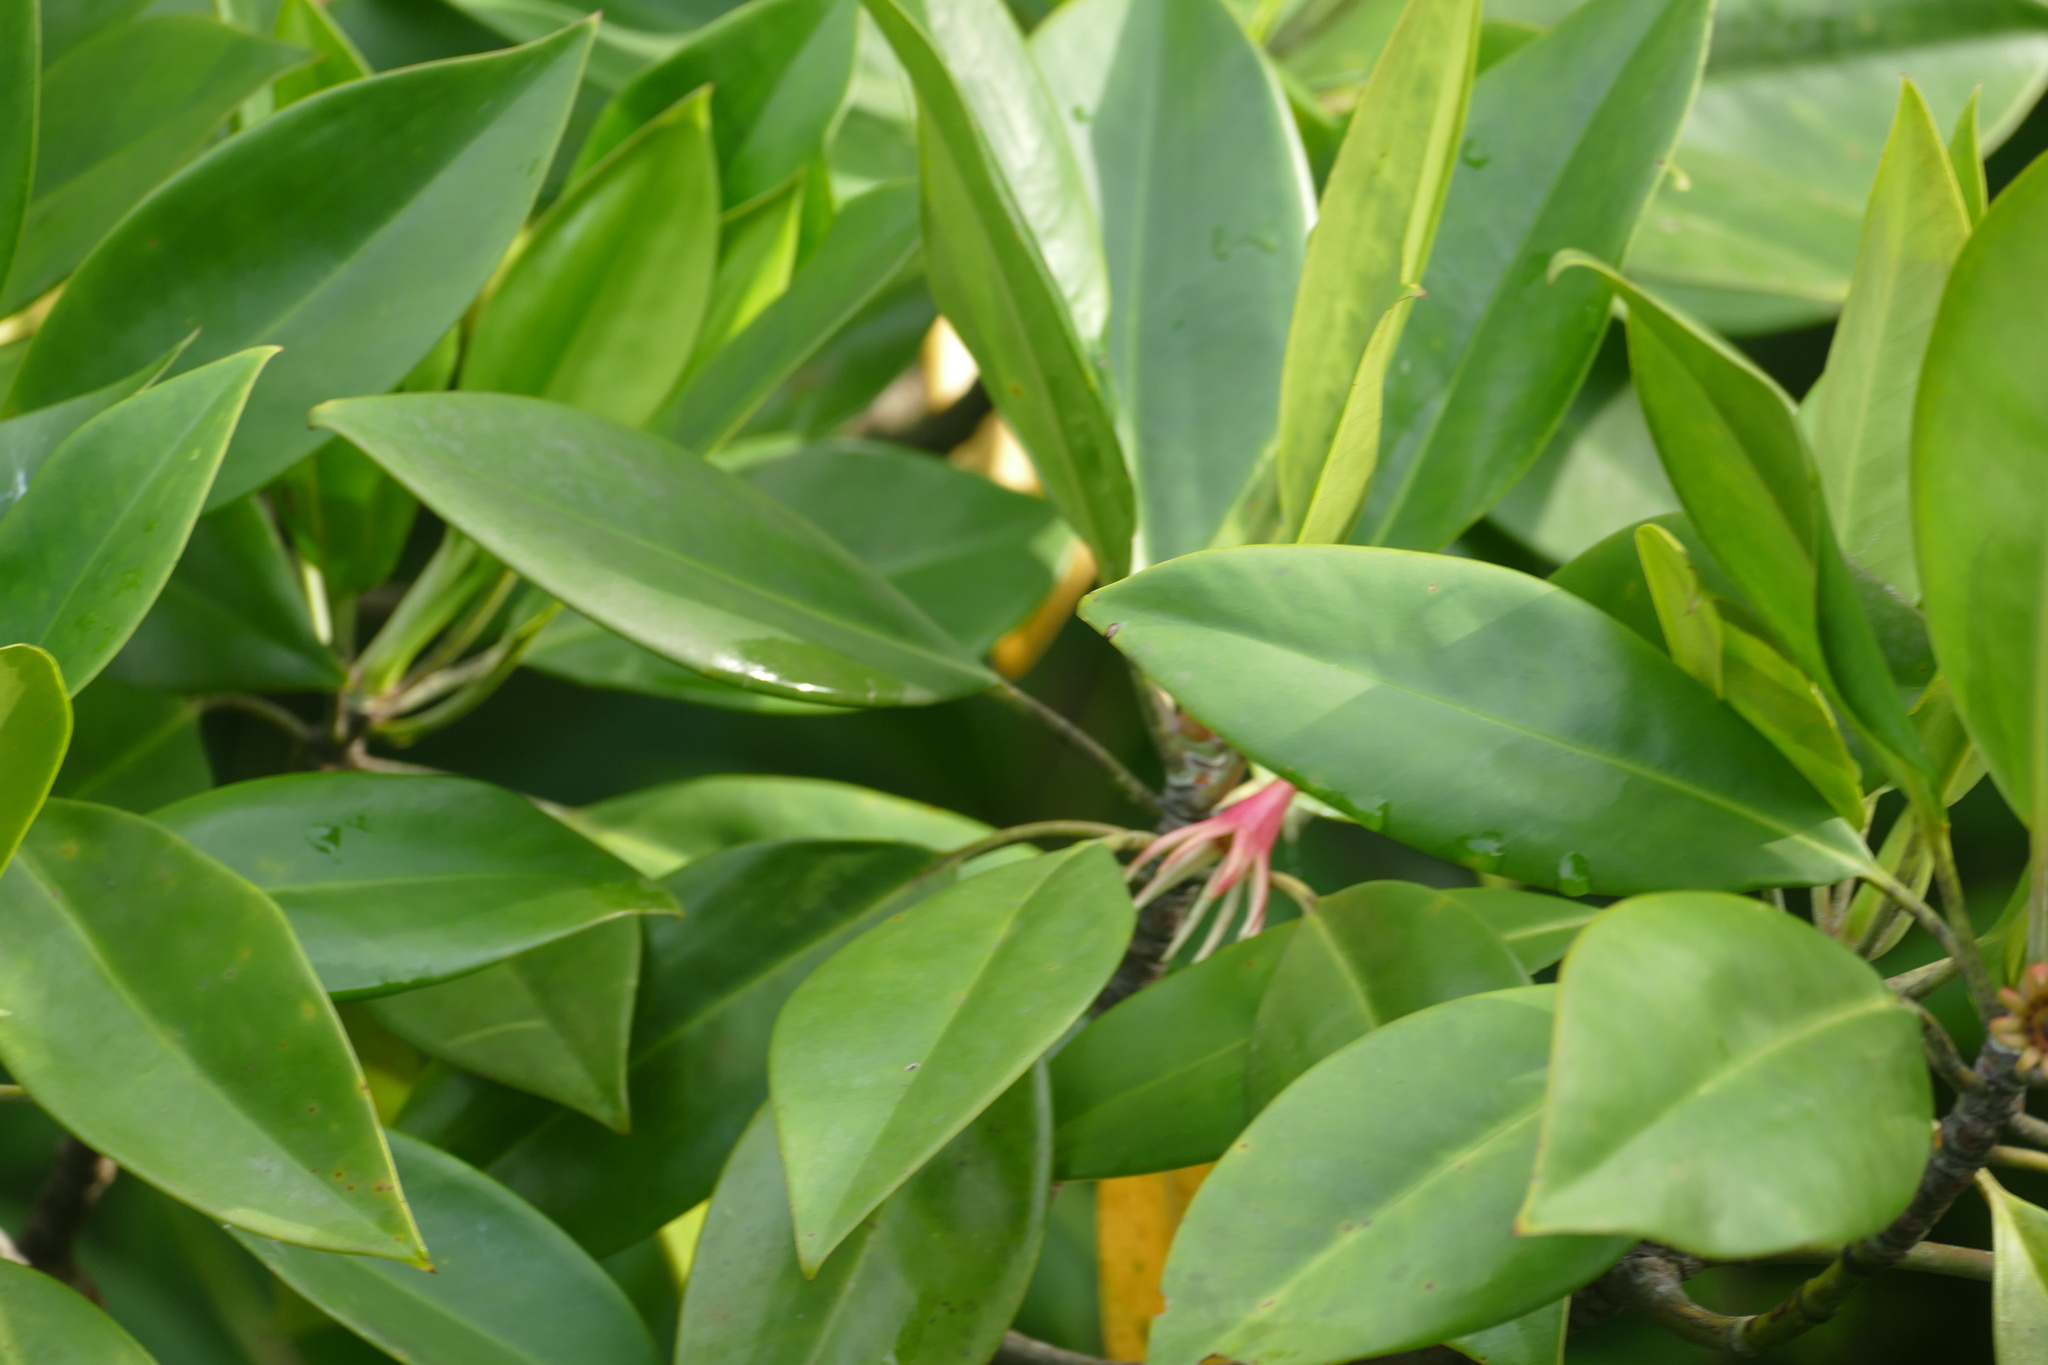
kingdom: Plantae
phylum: Tracheophyta
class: Magnoliopsida
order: Malpighiales
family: Rhizophoraceae
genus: Bruguiera
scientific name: Bruguiera gymnorhiza
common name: Oriental mangrove
